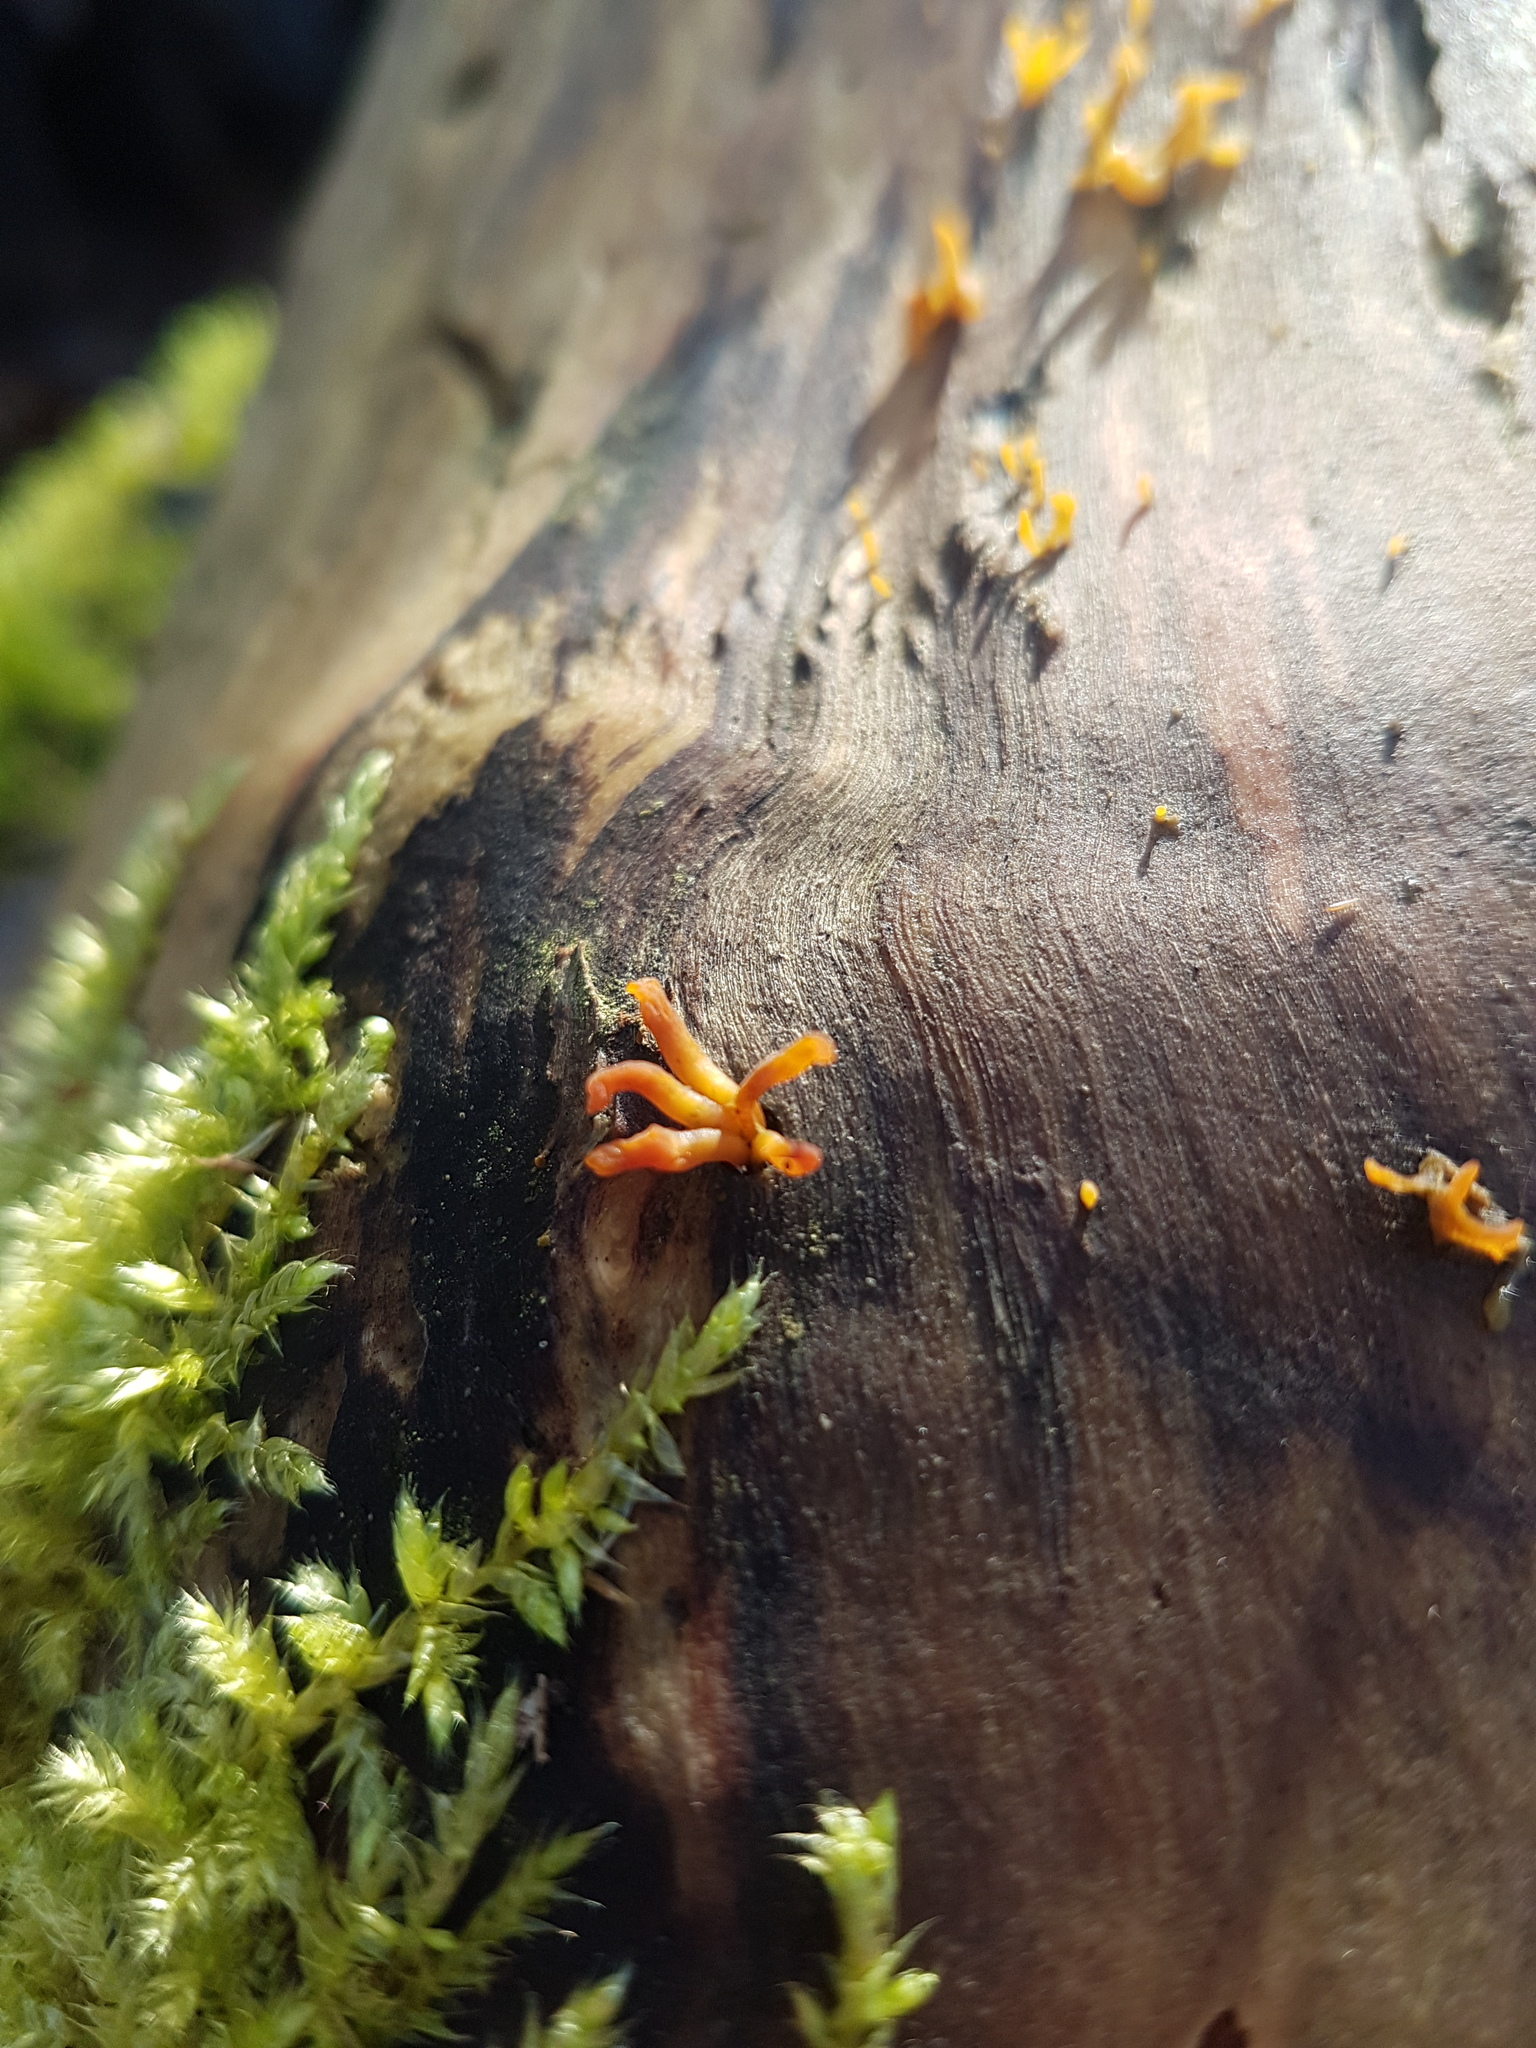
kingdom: Fungi
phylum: Basidiomycota
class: Dacrymycetes
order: Dacrymycetales
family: Dacrymycetaceae
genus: Calocera
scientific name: Calocera cornea
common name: Small stagshorn
